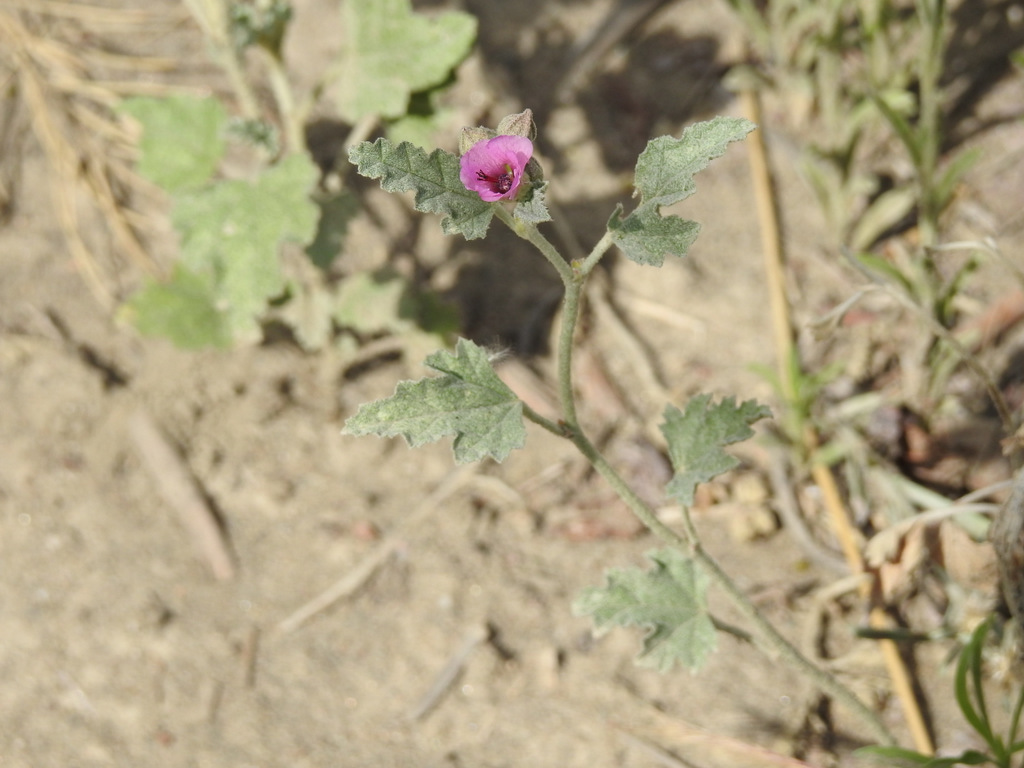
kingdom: Plantae
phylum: Tracheophyta
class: Magnoliopsida
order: Malvales
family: Malvaceae
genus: Sphaeralcea
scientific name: Sphaeralcea mendocina
